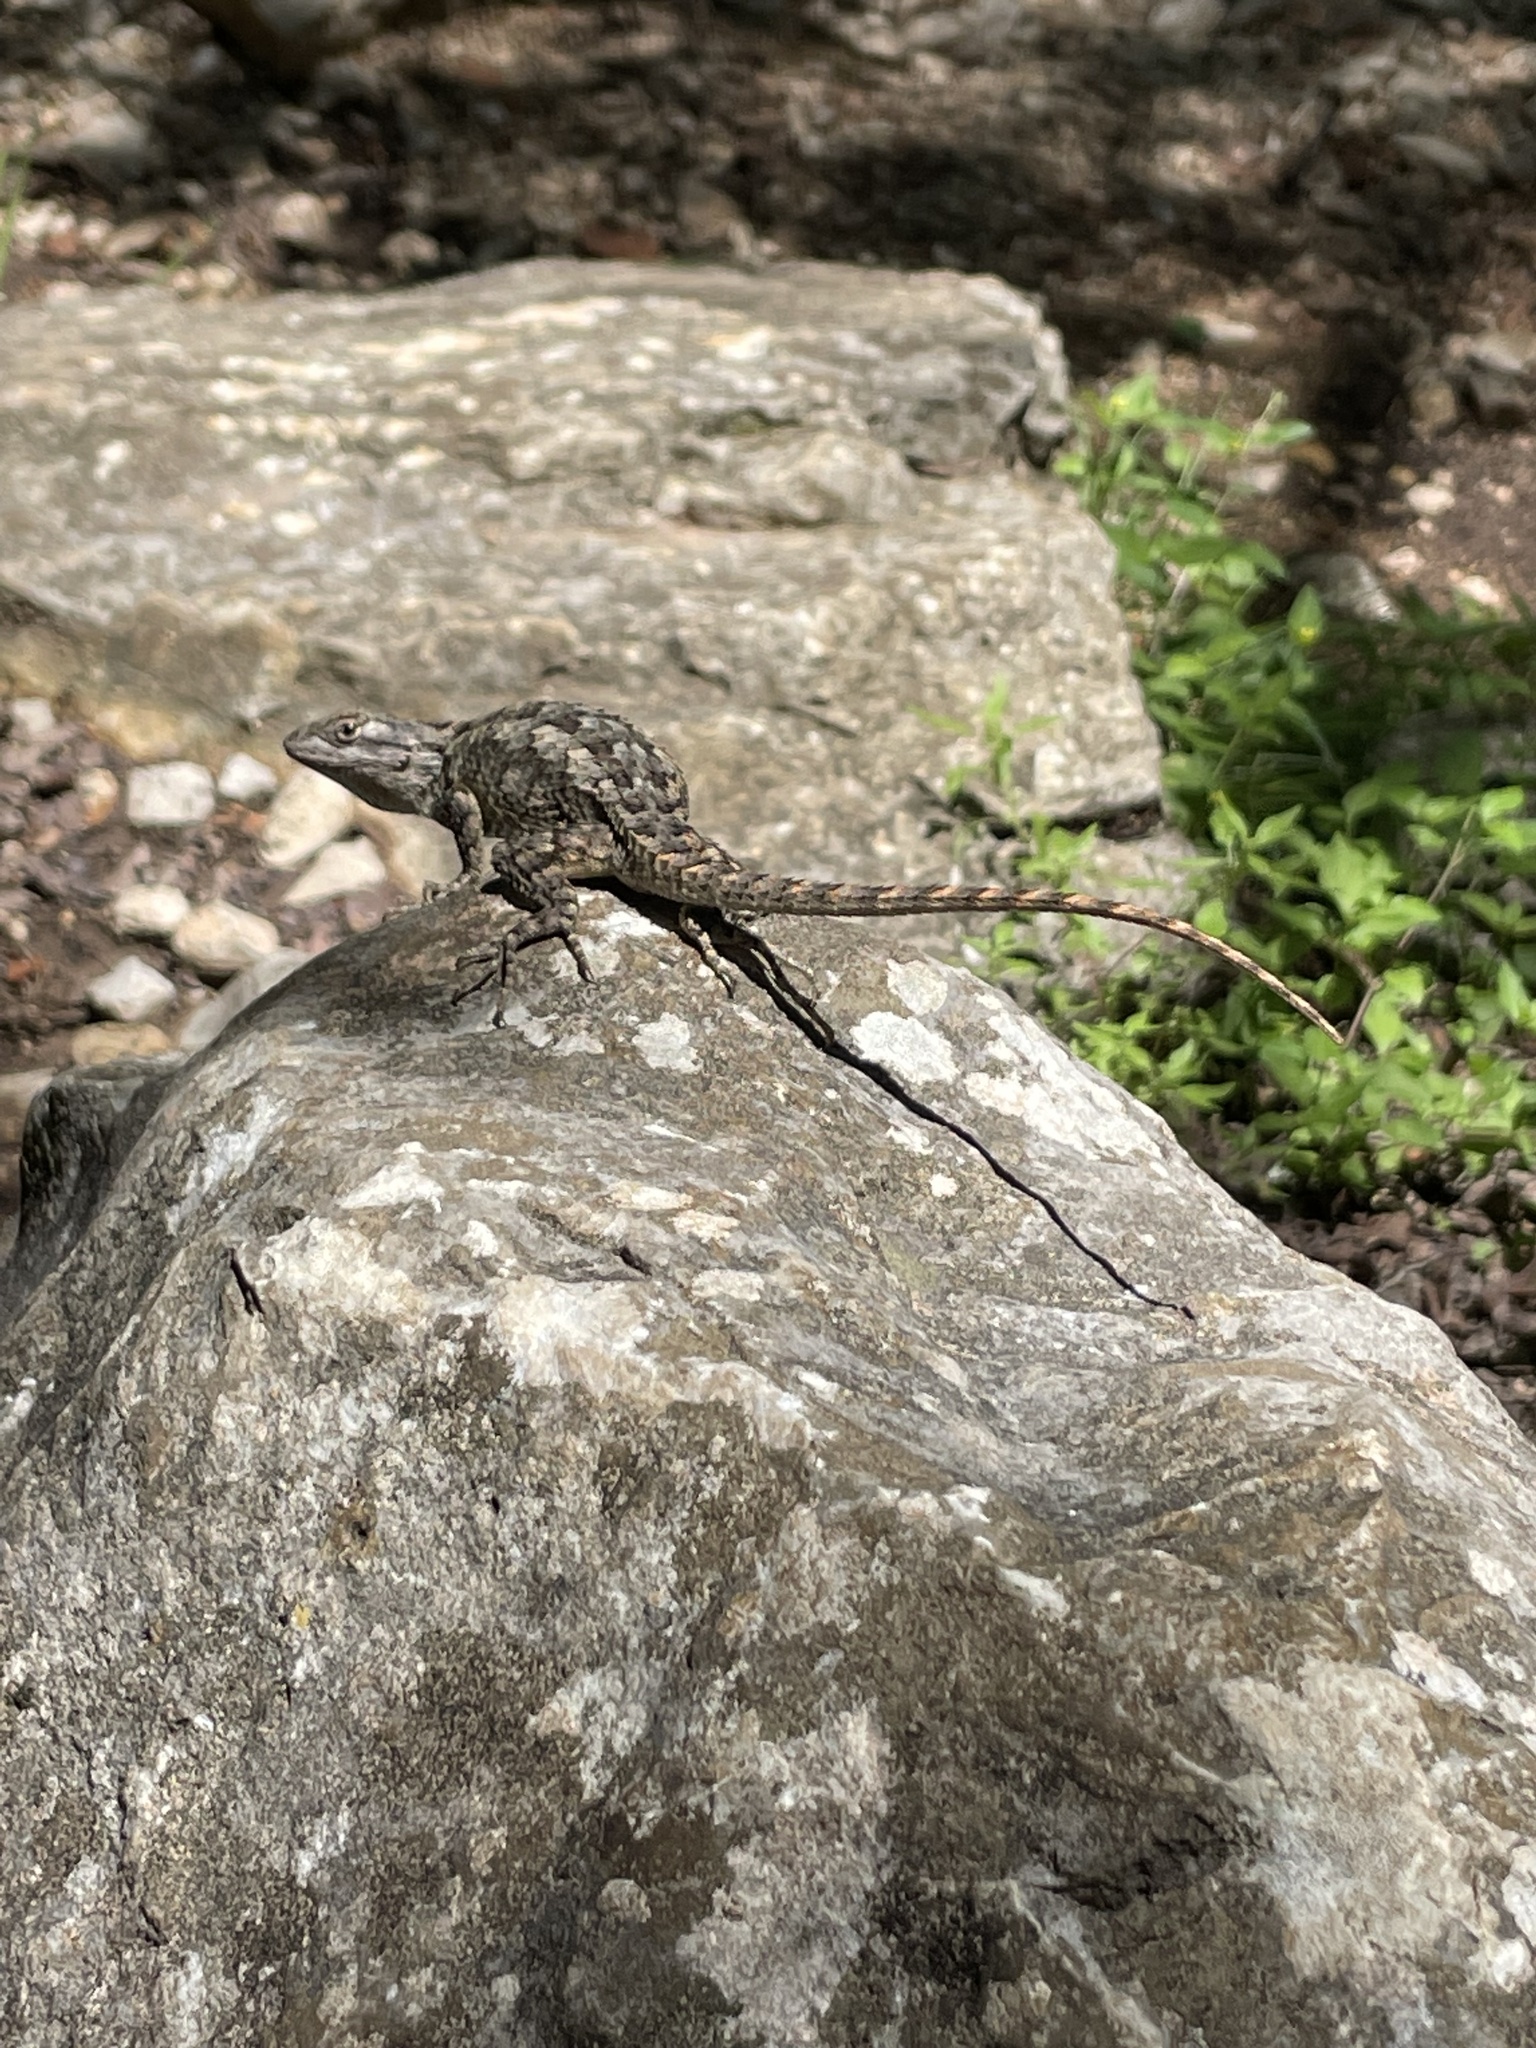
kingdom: Animalia
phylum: Chordata
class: Squamata
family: Phrynosomatidae
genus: Sceloporus
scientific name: Sceloporus olivaceus
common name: Texas spiny lizard
